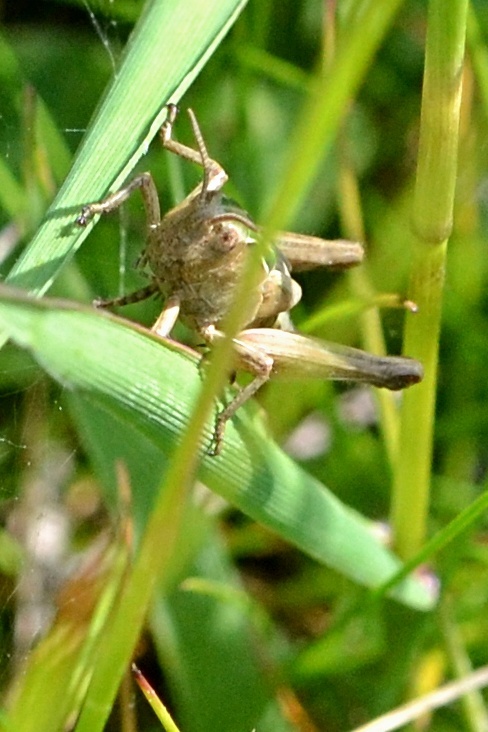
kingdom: Animalia
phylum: Arthropoda
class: Insecta
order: Orthoptera
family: Acrididae
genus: Omocestus
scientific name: Omocestus viridulus
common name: Common green grasshopper
